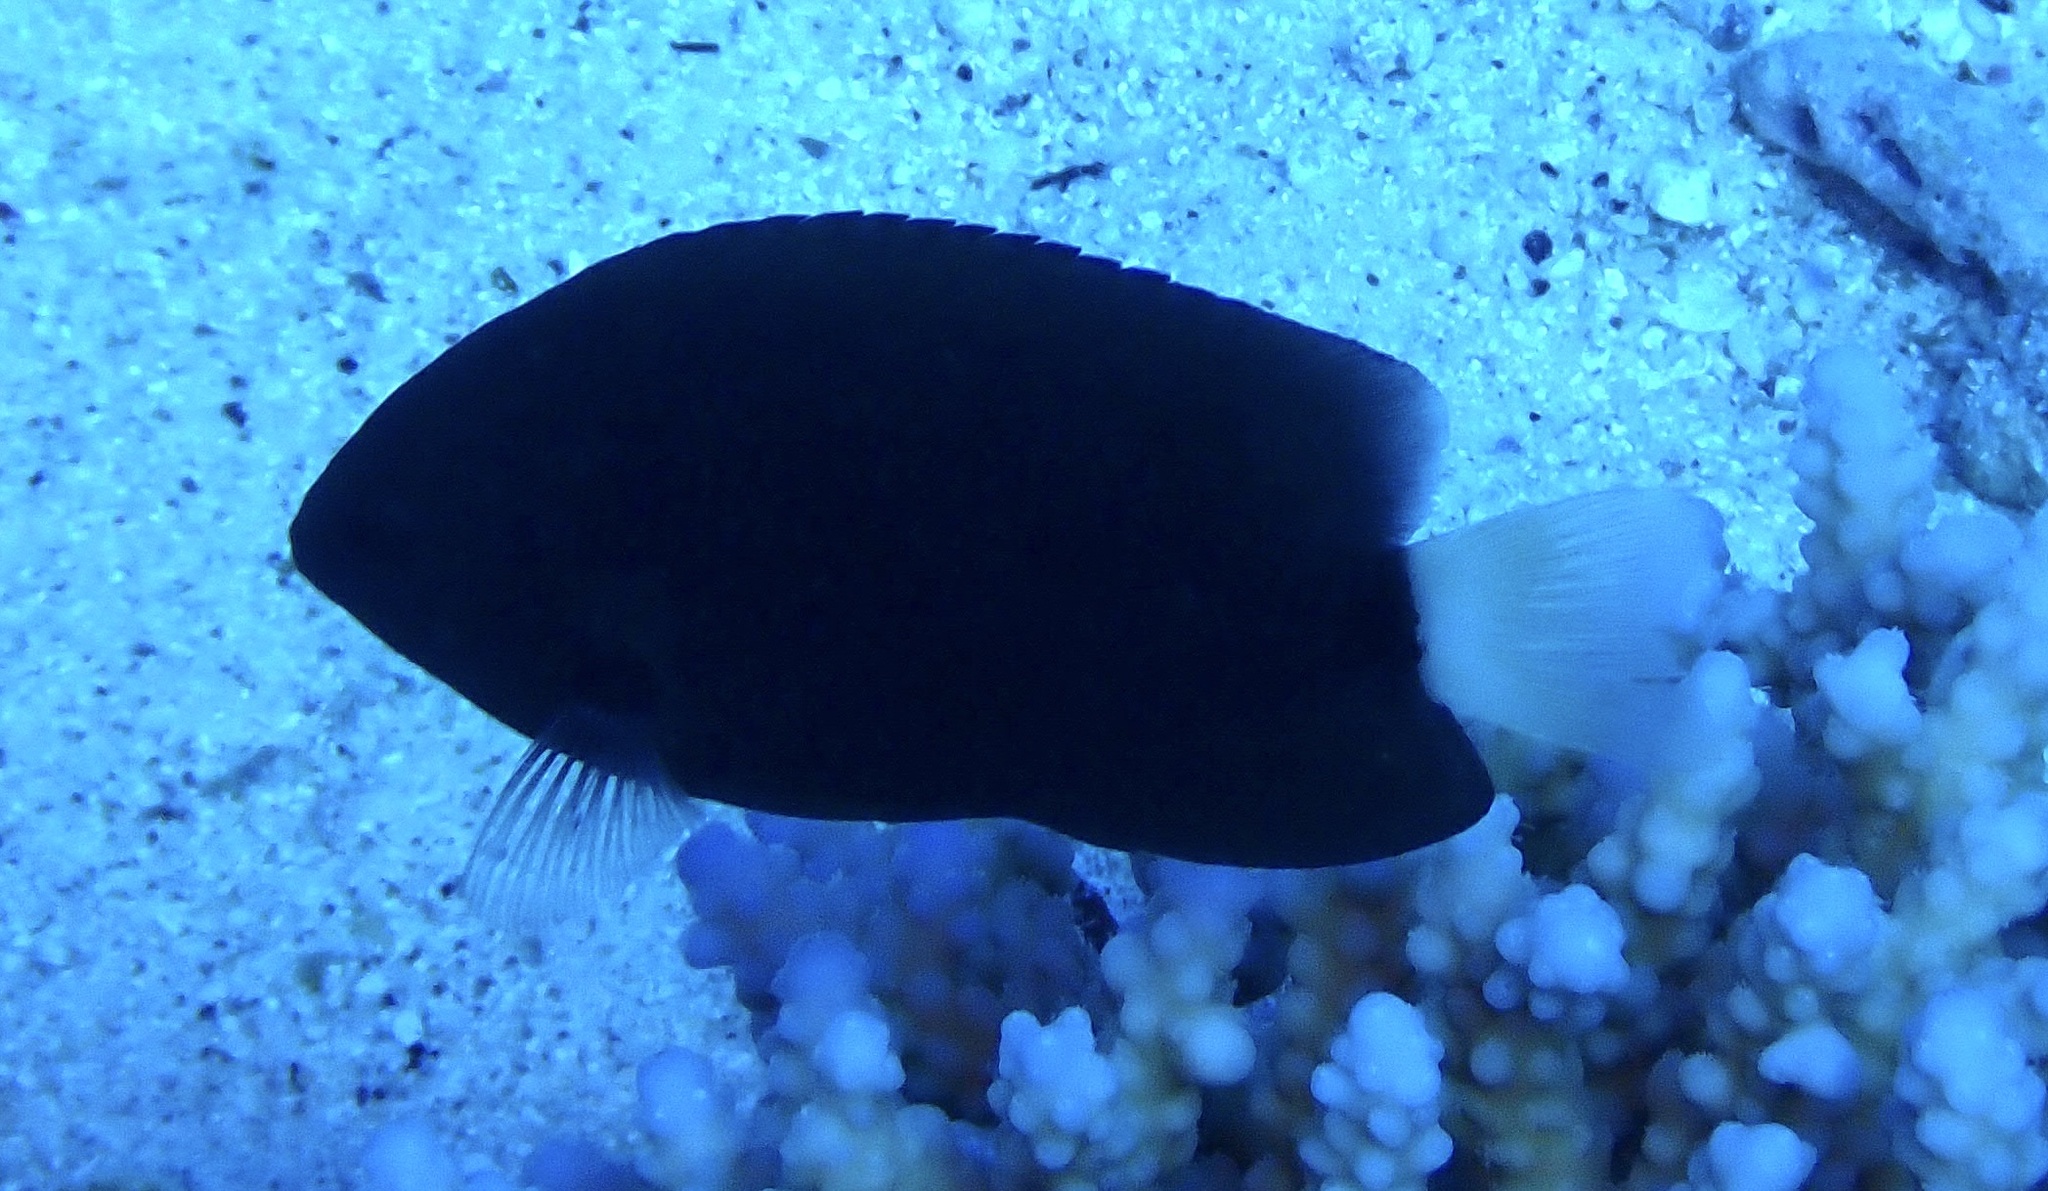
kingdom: Animalia
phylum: Chordata
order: Perciformes
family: Pomacentridae
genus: Pomacentrus
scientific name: Pomacentrus albicaudatus
